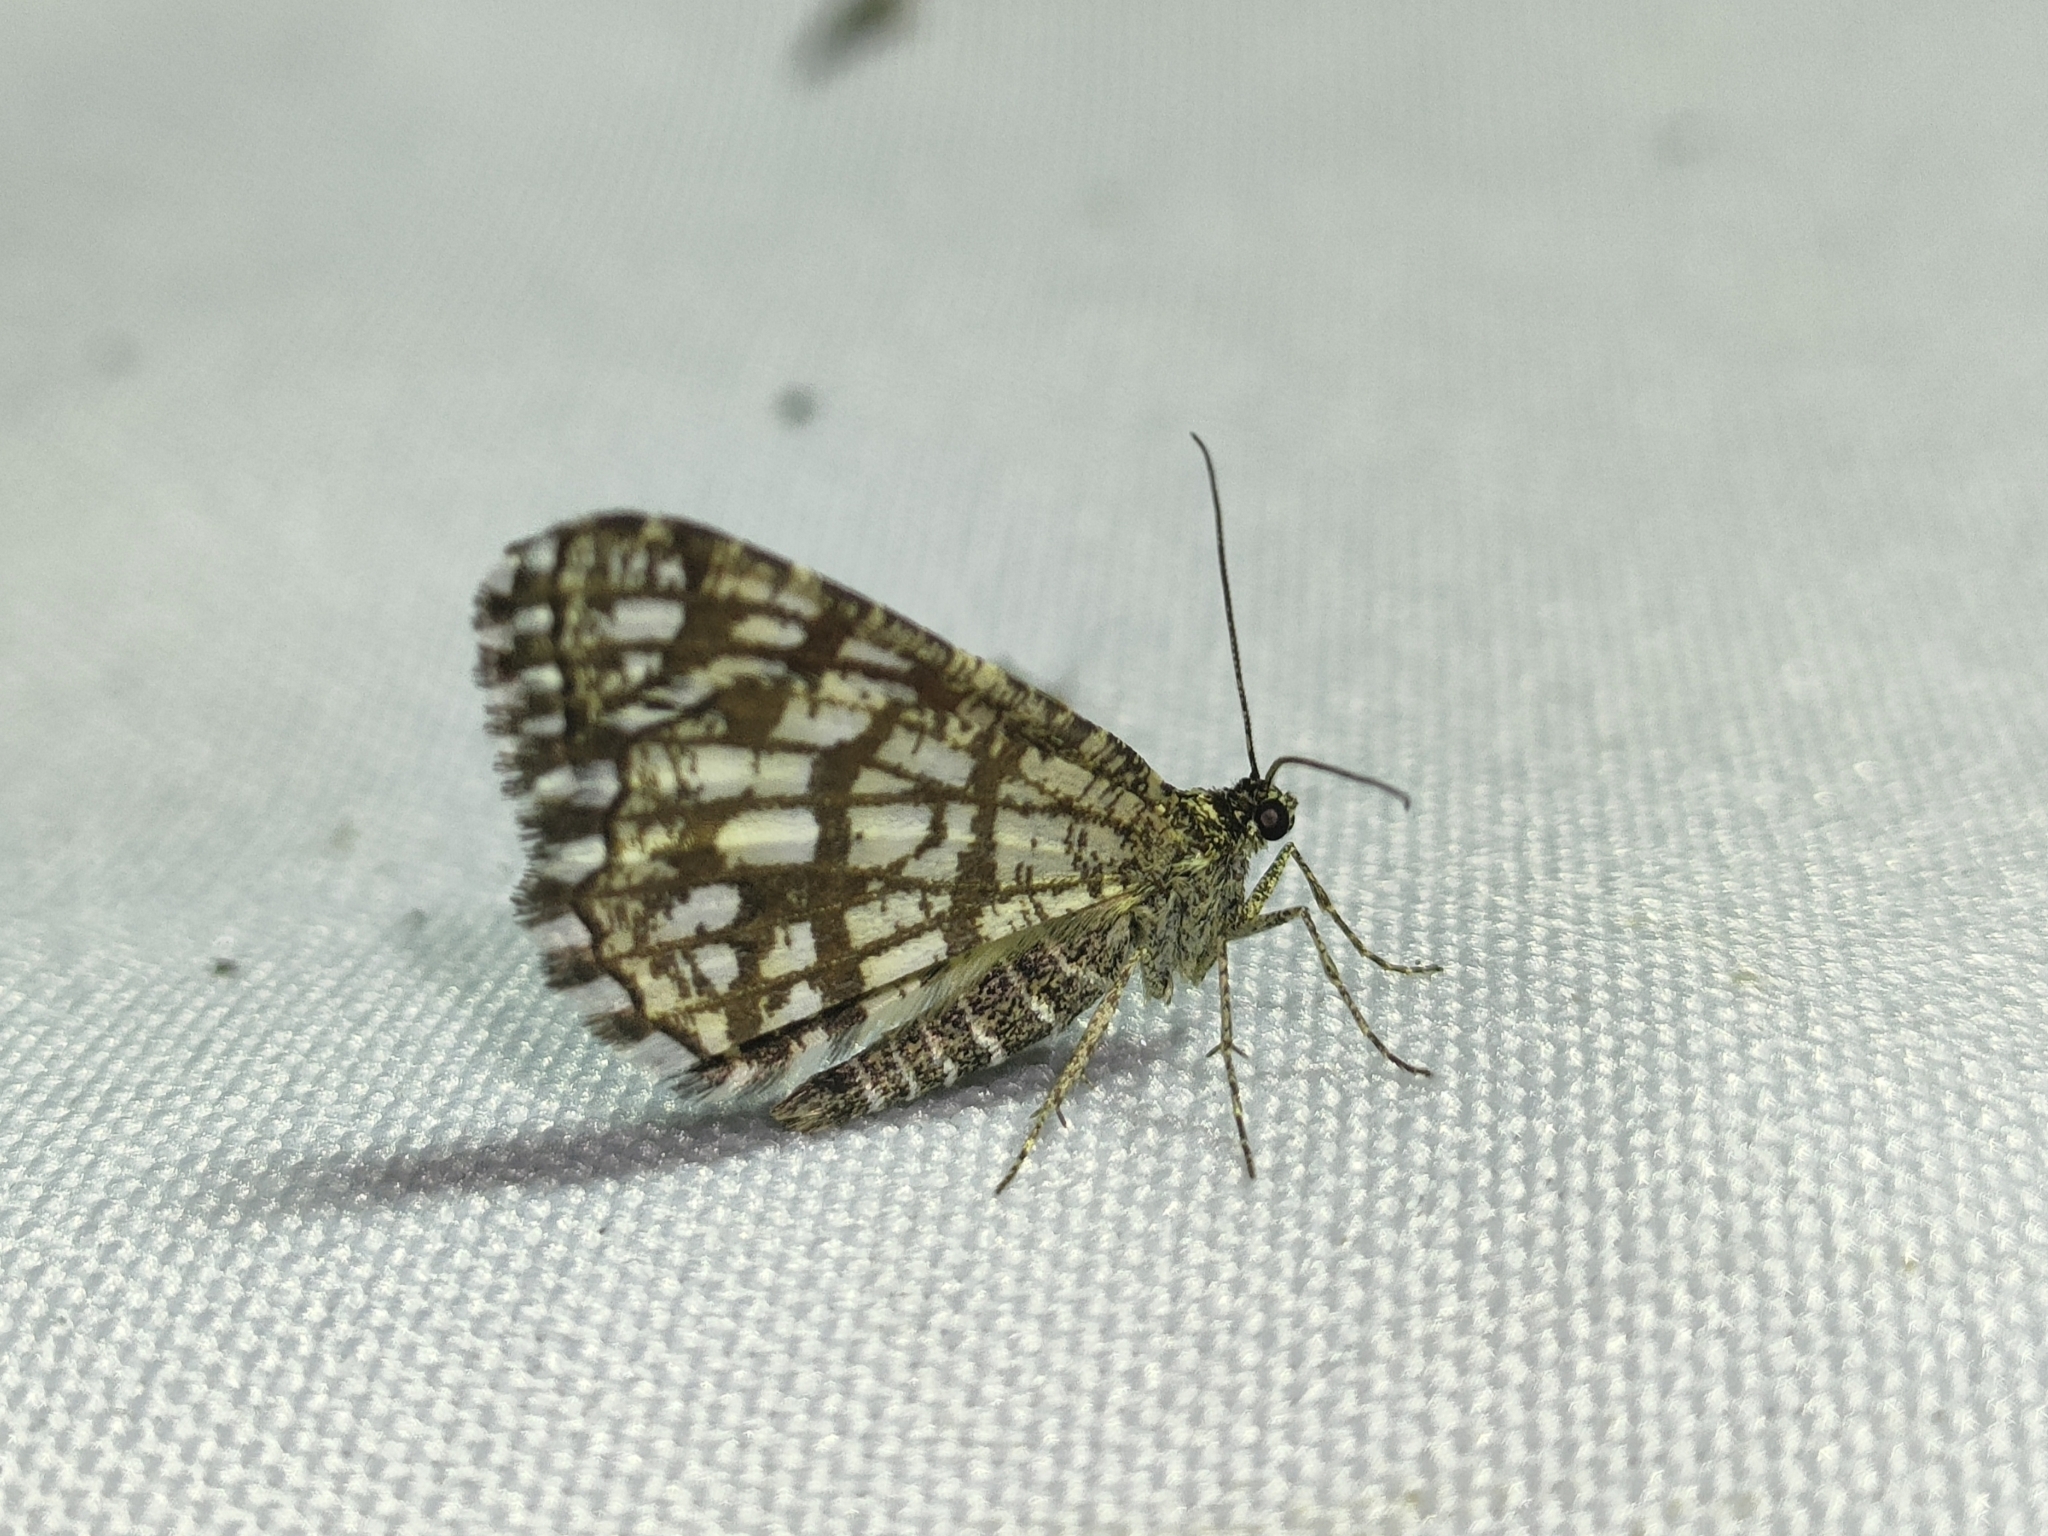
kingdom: Animalia
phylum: Arthropoda
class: Insecta
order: Lepidoptera
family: Geometridae
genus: Chiasmia
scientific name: Chiasmia clathrata
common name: Latticed heath
